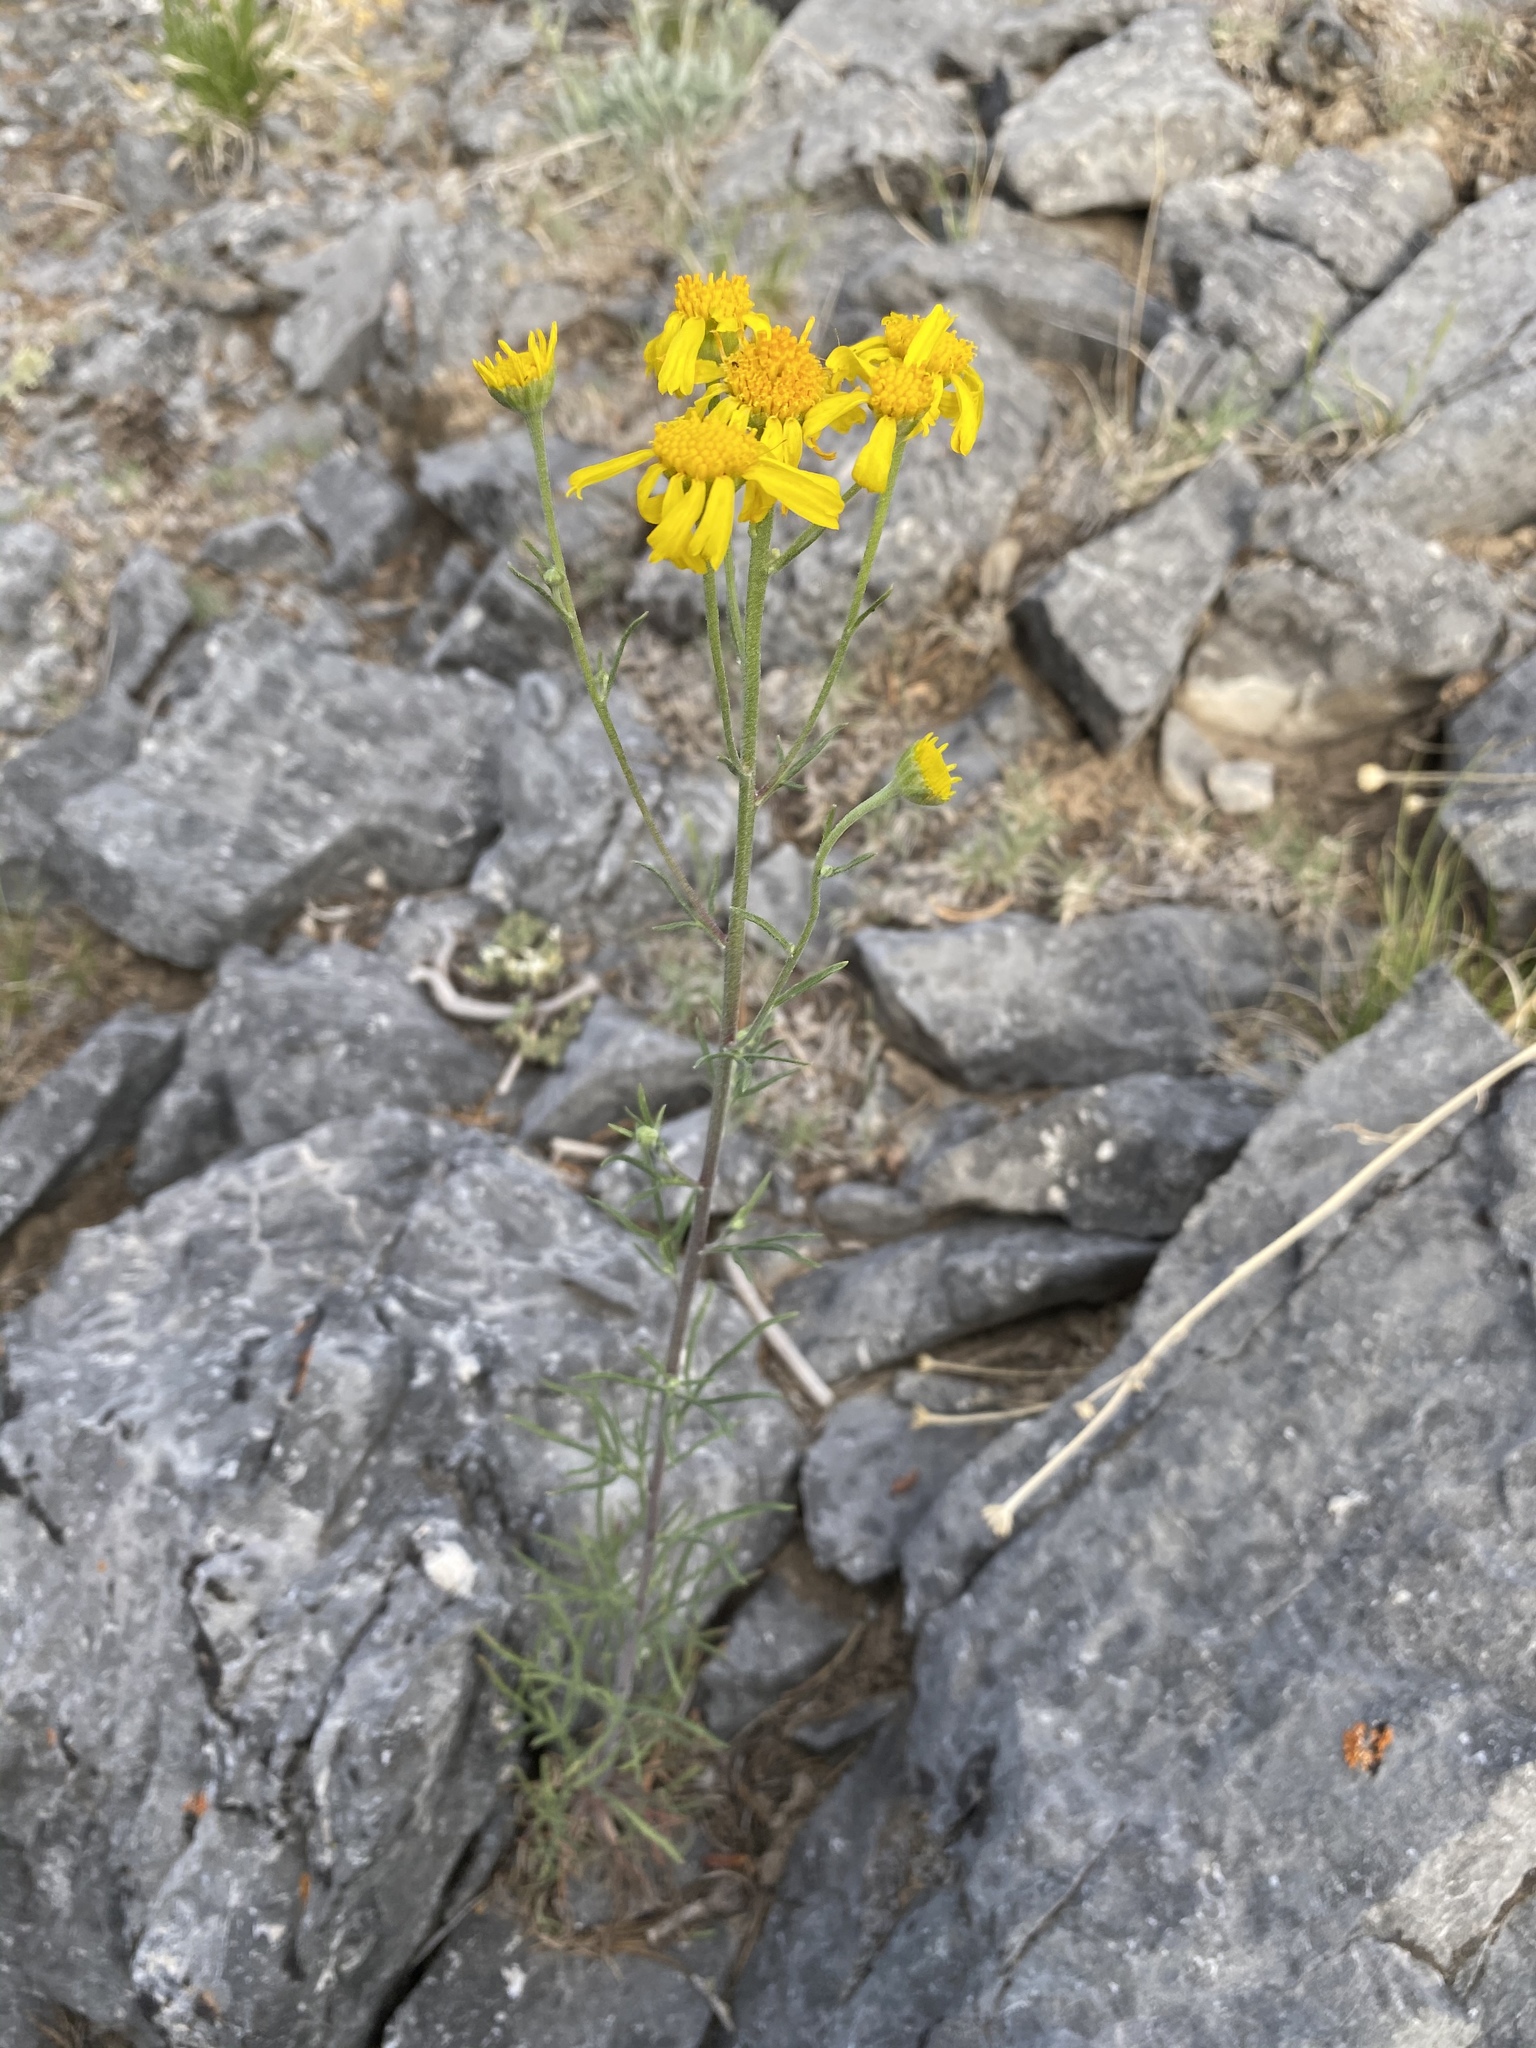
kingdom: Plantae
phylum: Tracheophyta
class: Magnoliopsida
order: Asterales
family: Asteraceae
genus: Hymenoxys
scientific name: Hymenoxys cooperi
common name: Cooper's bitterweed
